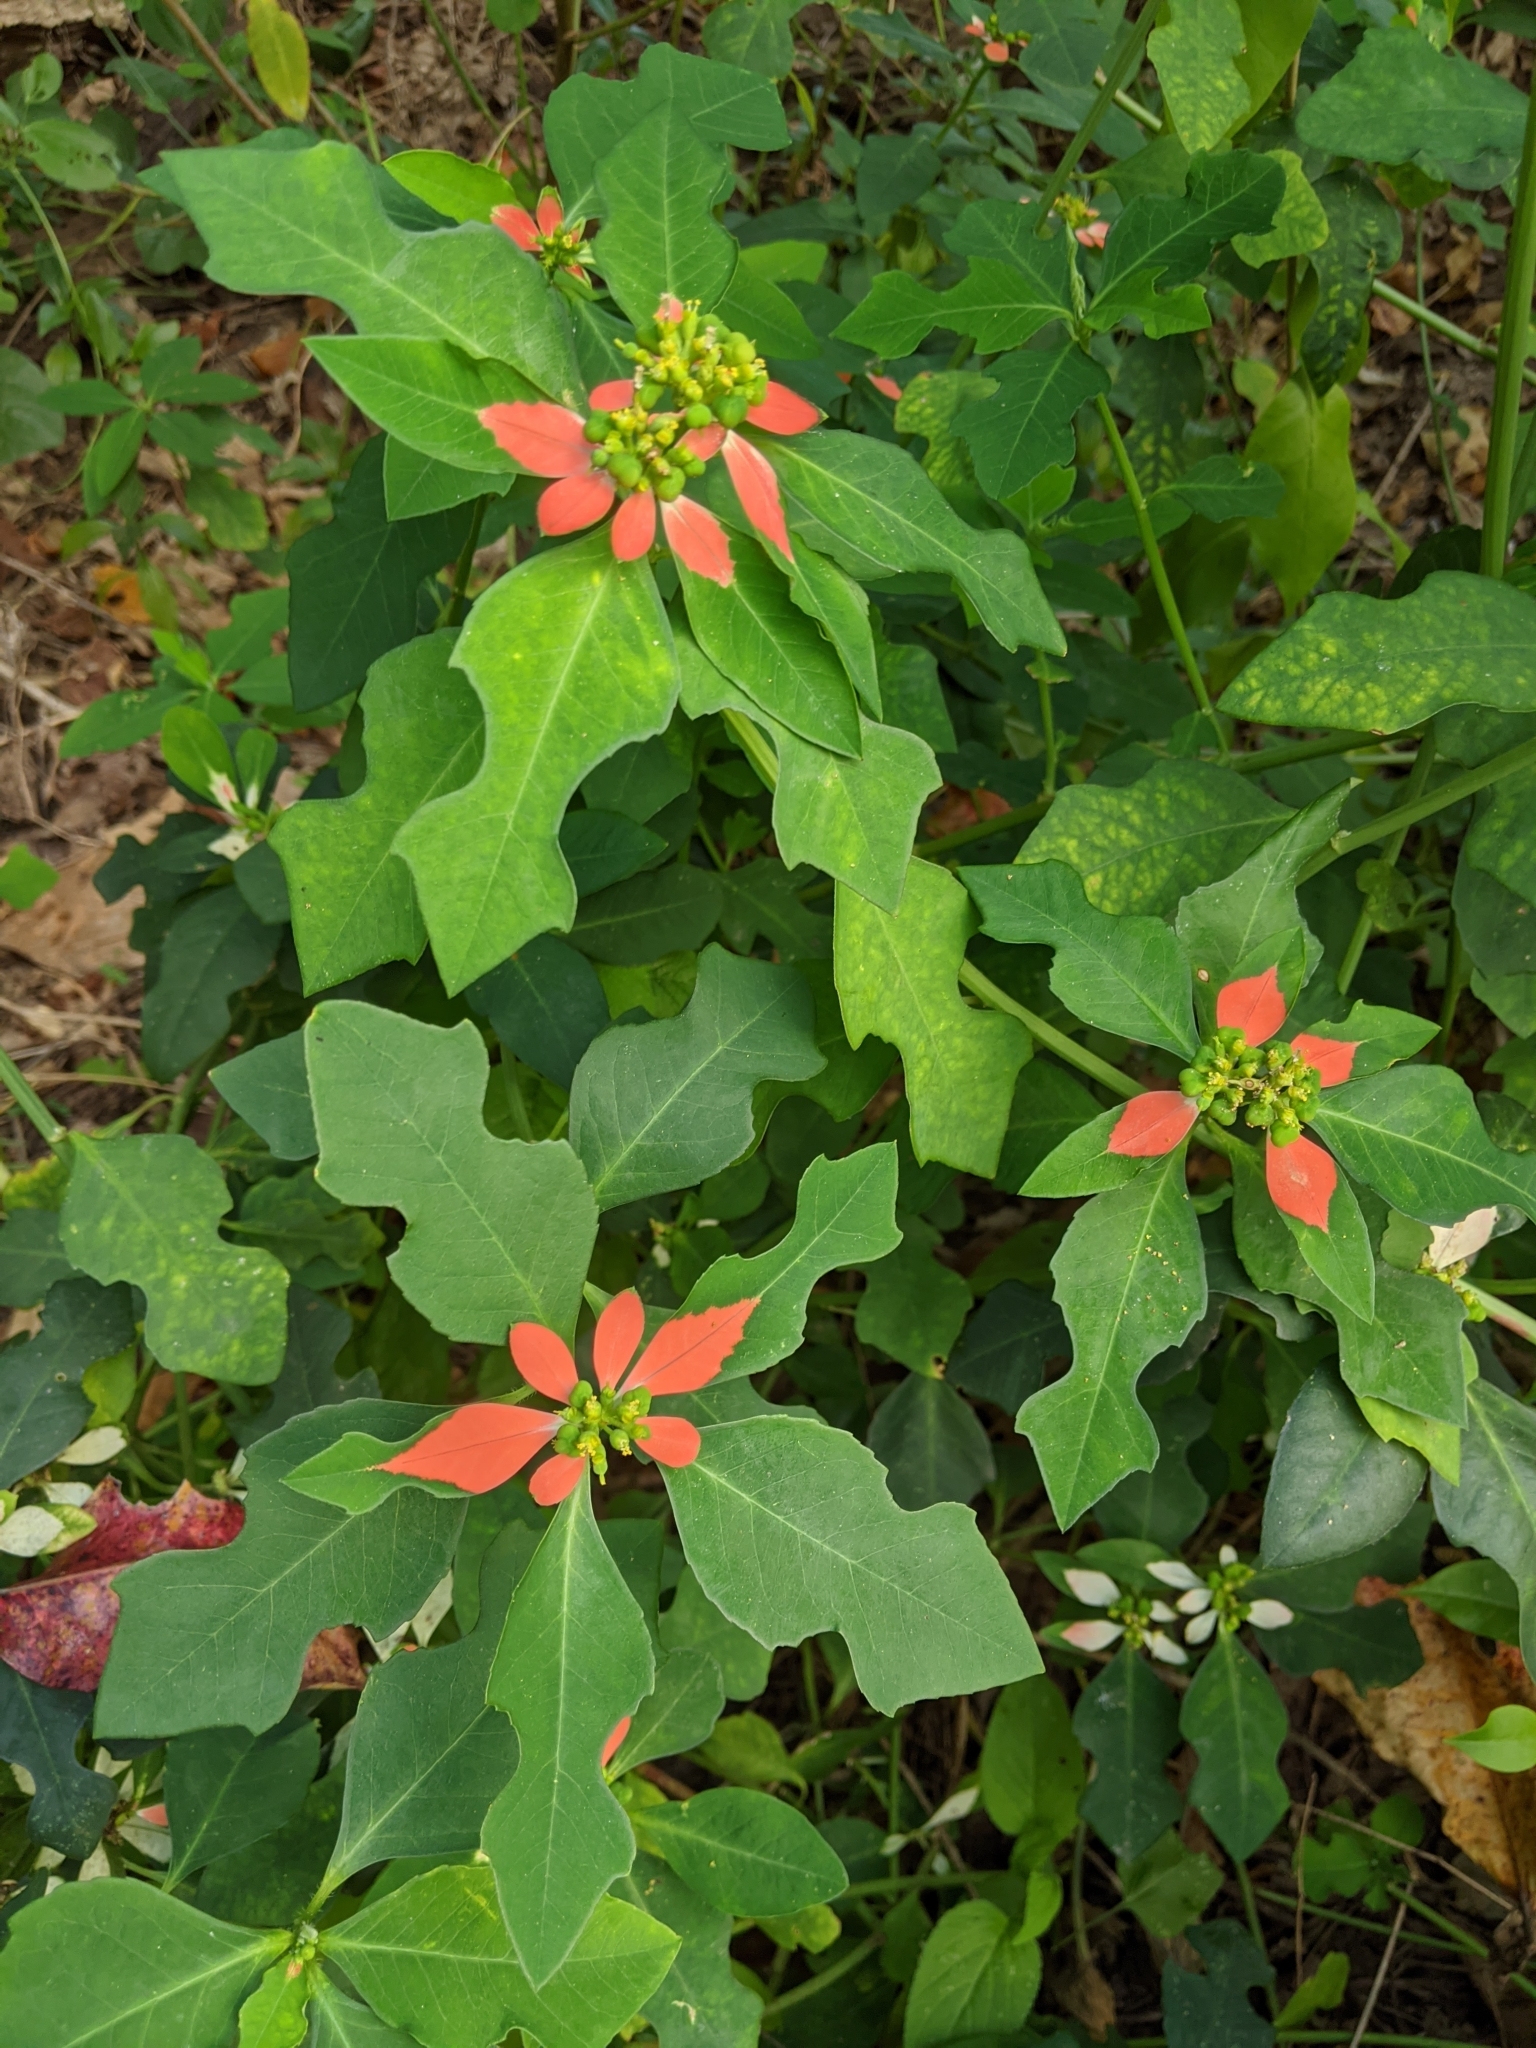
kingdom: Plantae
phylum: Tracheophyta
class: Magnoliopsida
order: Malpighiales
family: Euphorbiaceae
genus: Euphorbia
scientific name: Euphorbia heterophylla
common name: Mexican fireplant
